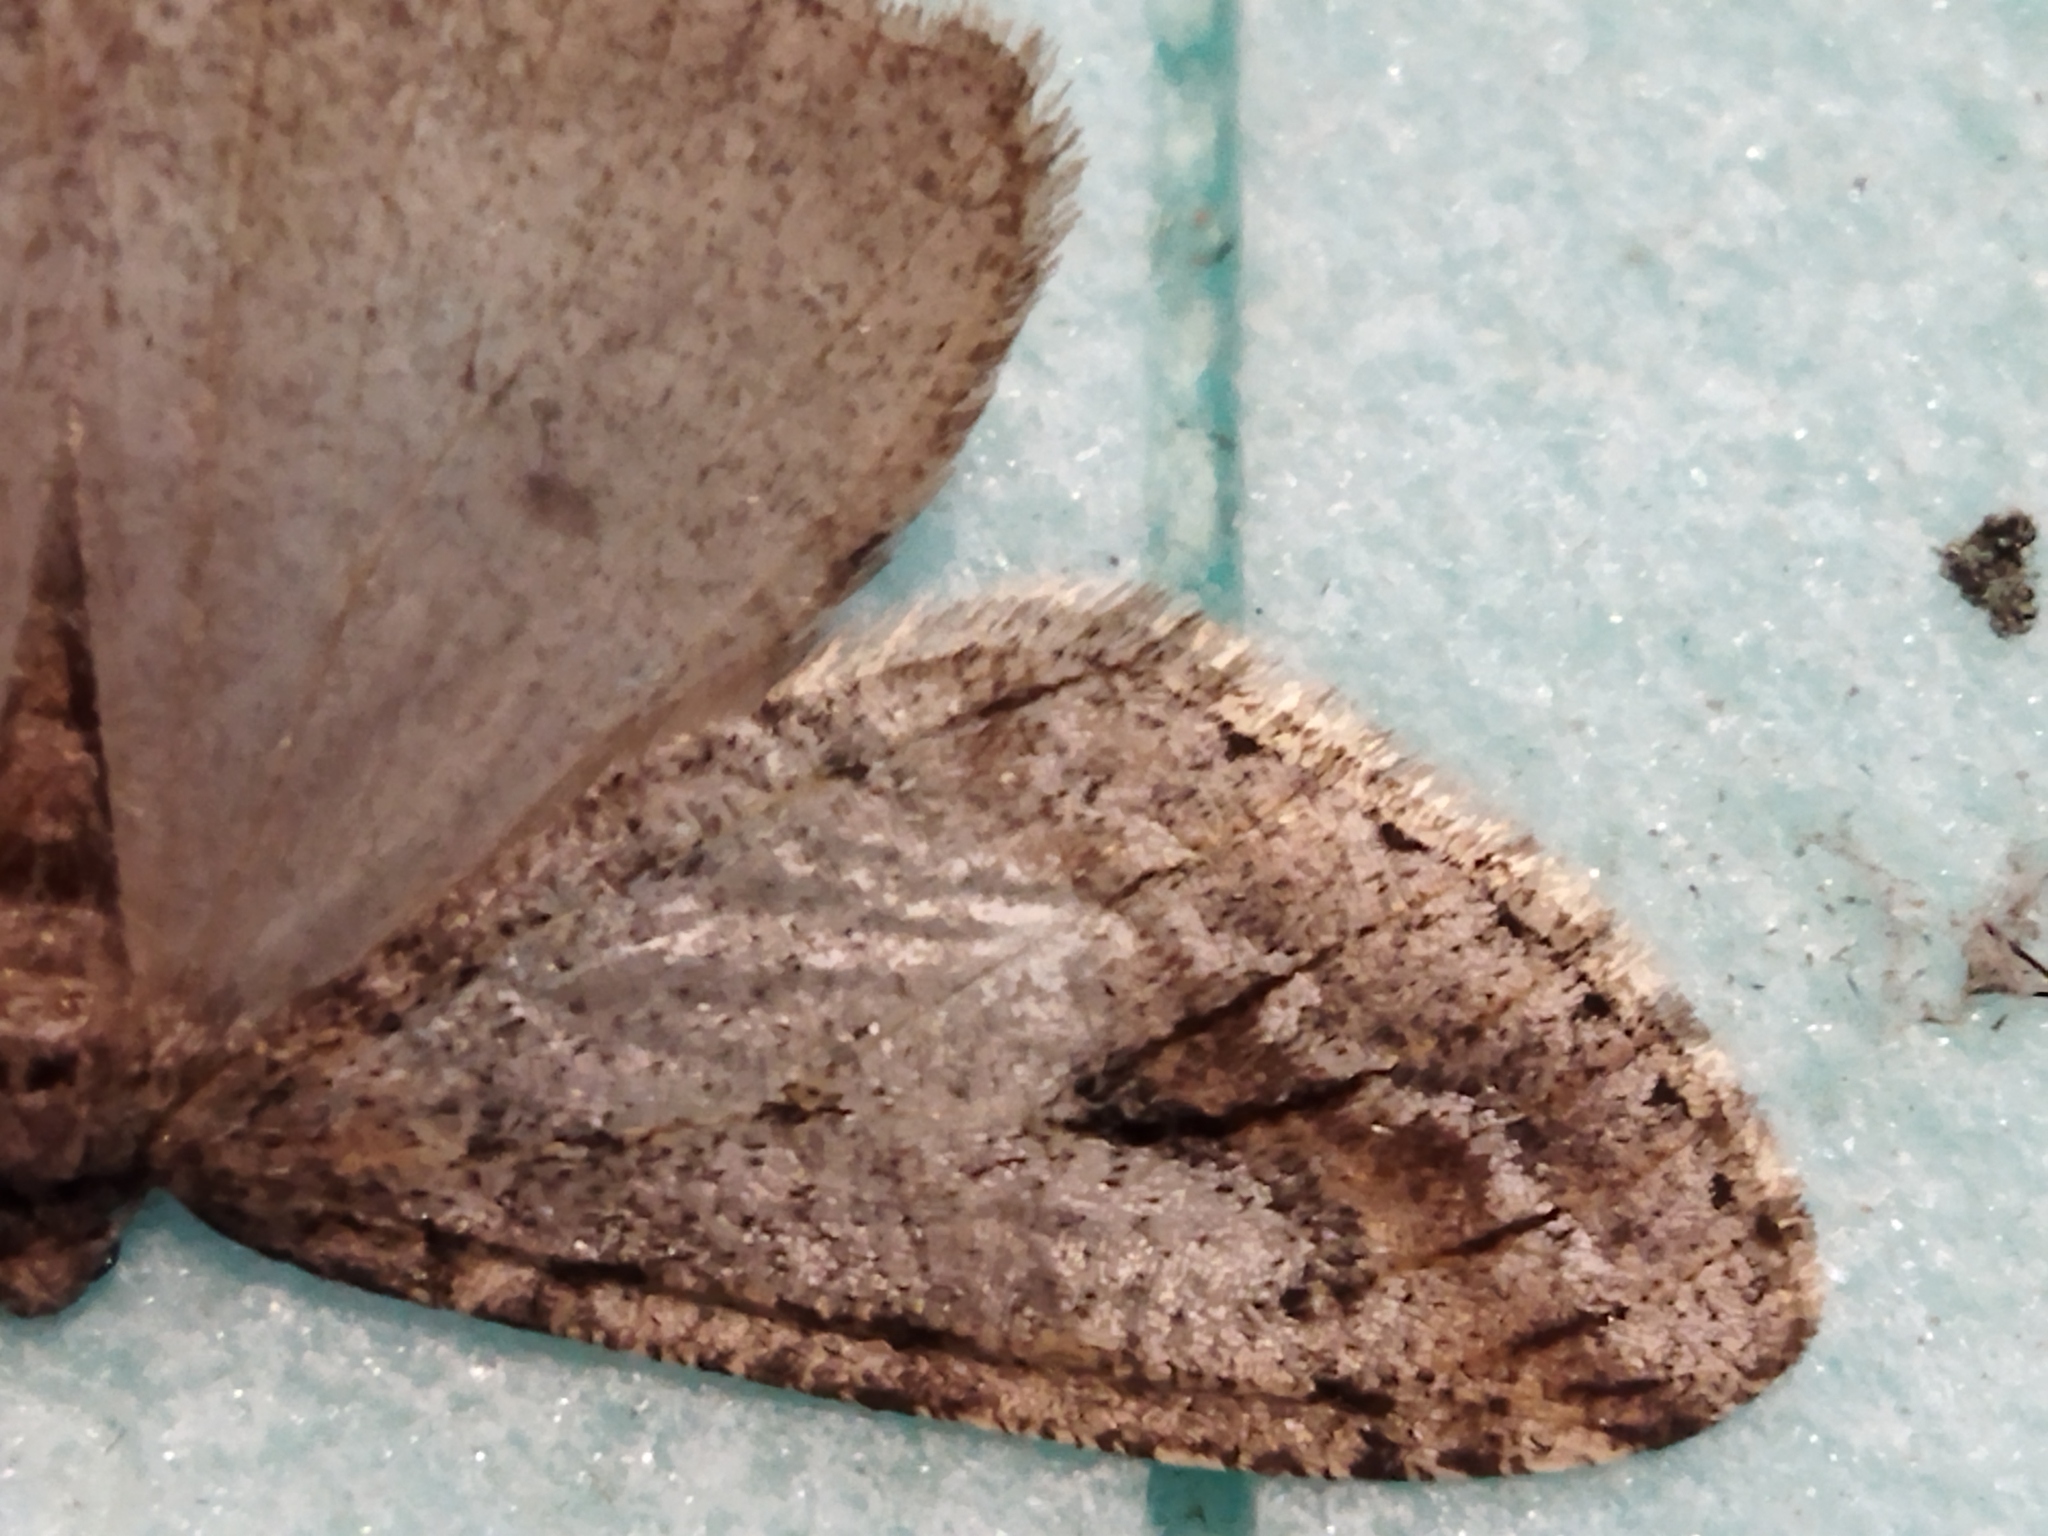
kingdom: Animalia
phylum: Arthropoda
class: Insecta
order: Lepidoptera
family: Geometridae
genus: Erannis
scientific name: Erannis declinans
